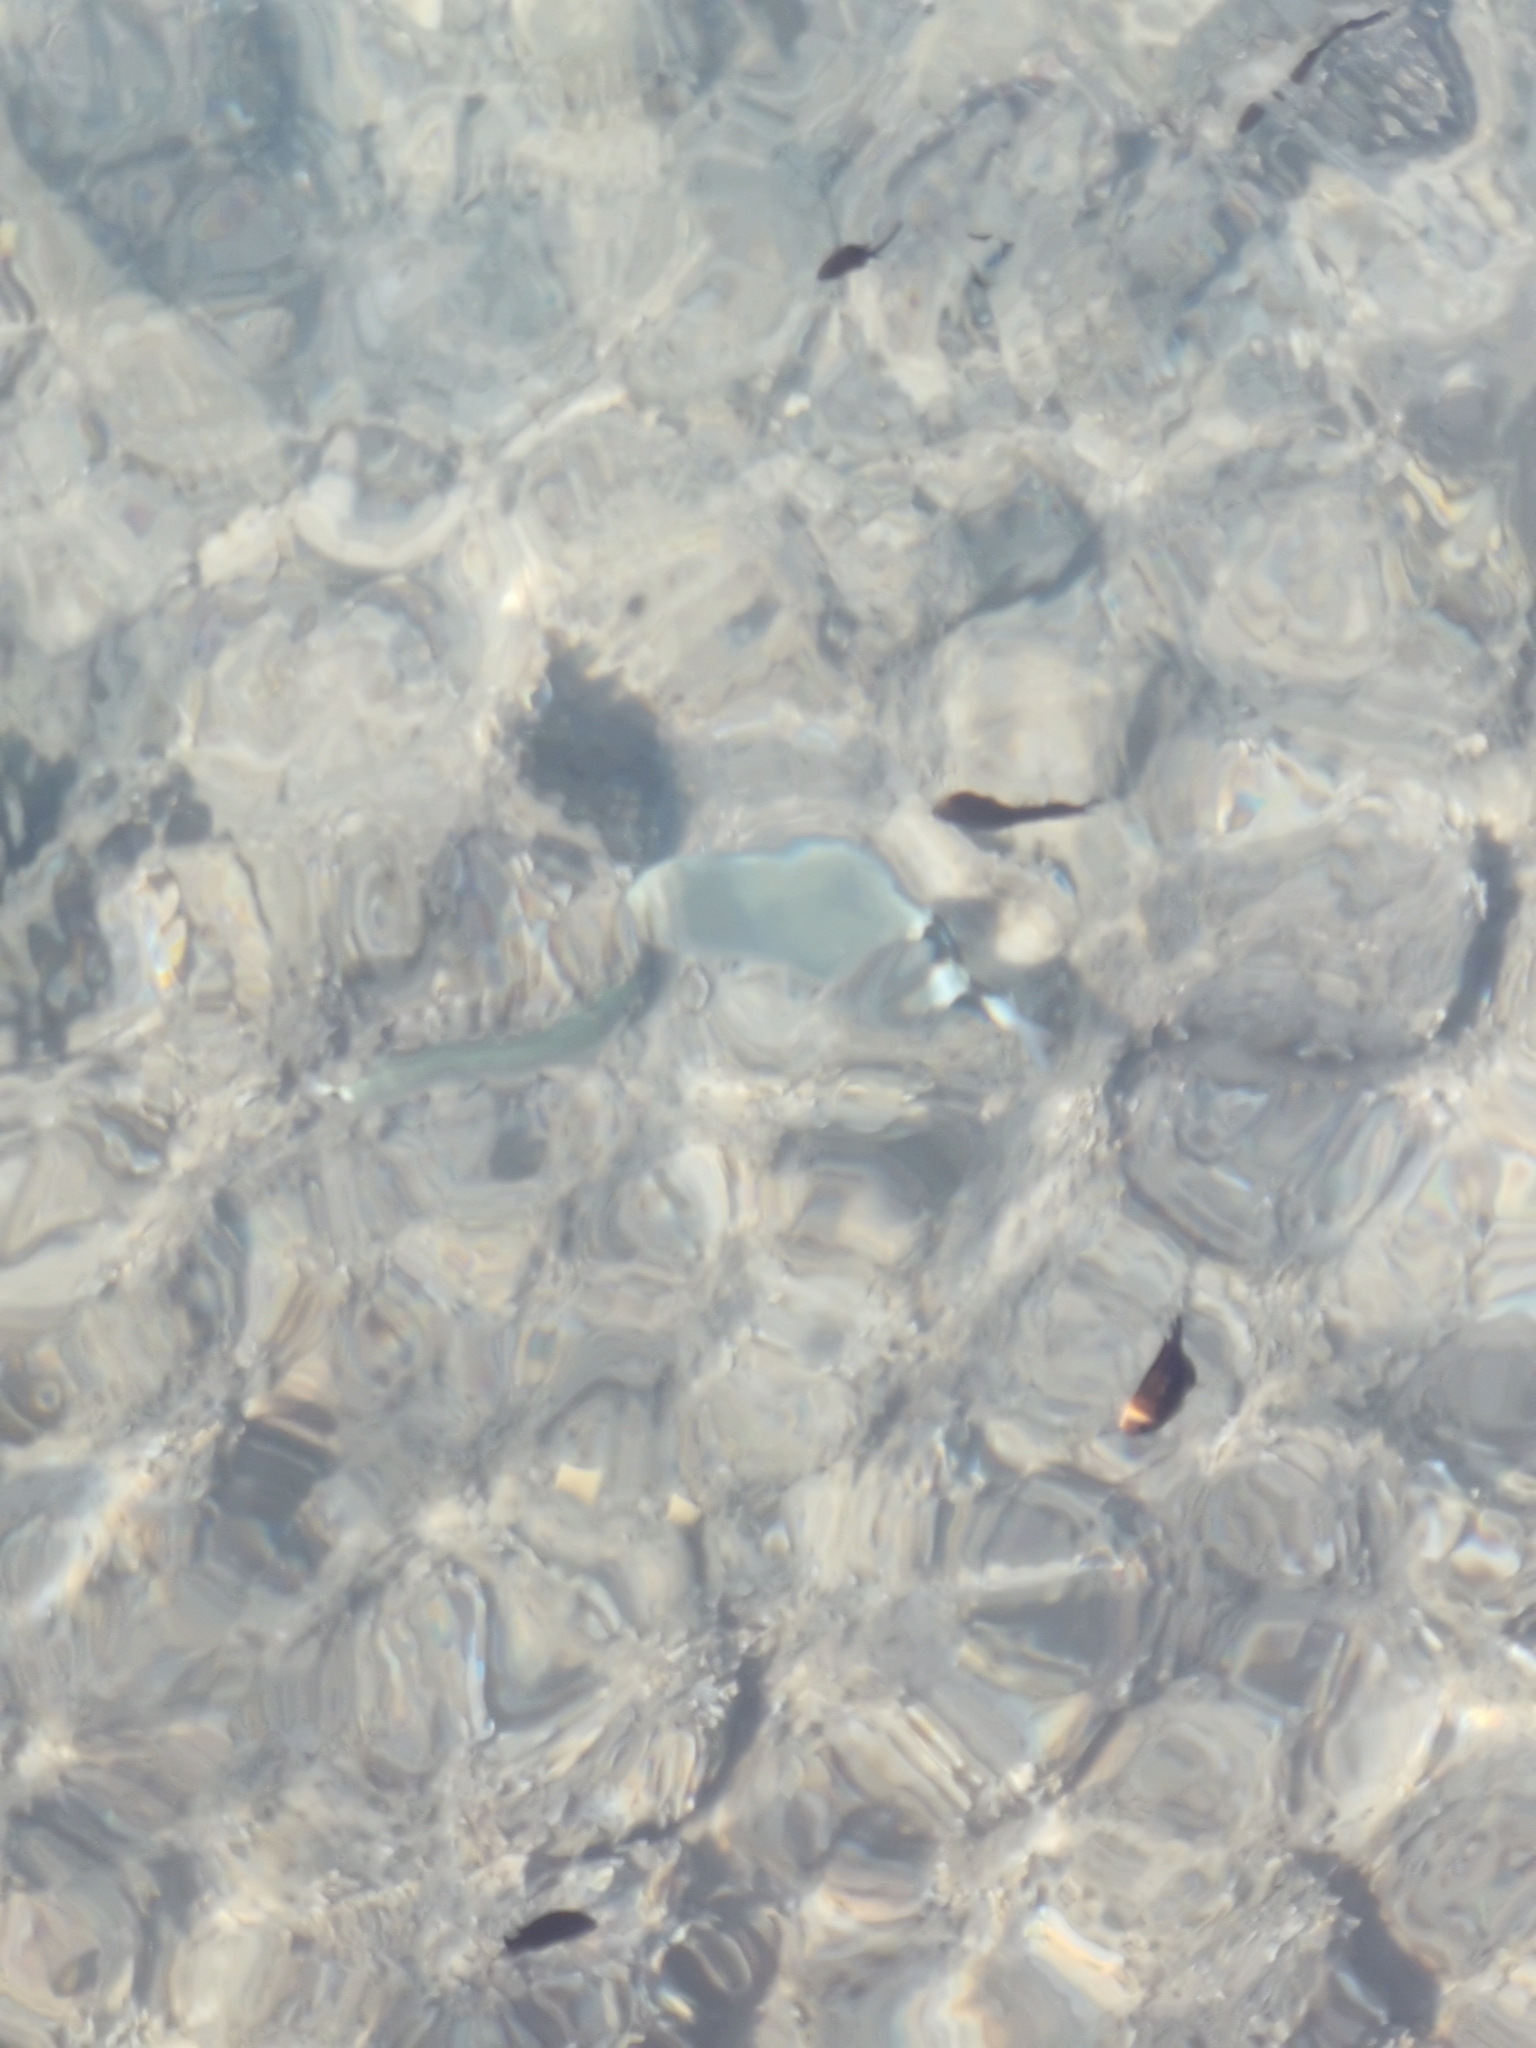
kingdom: Animalia
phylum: Chordata
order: Perciformes
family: Sparidae
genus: Oblada
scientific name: Oblada melanura
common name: Saddled seabream
